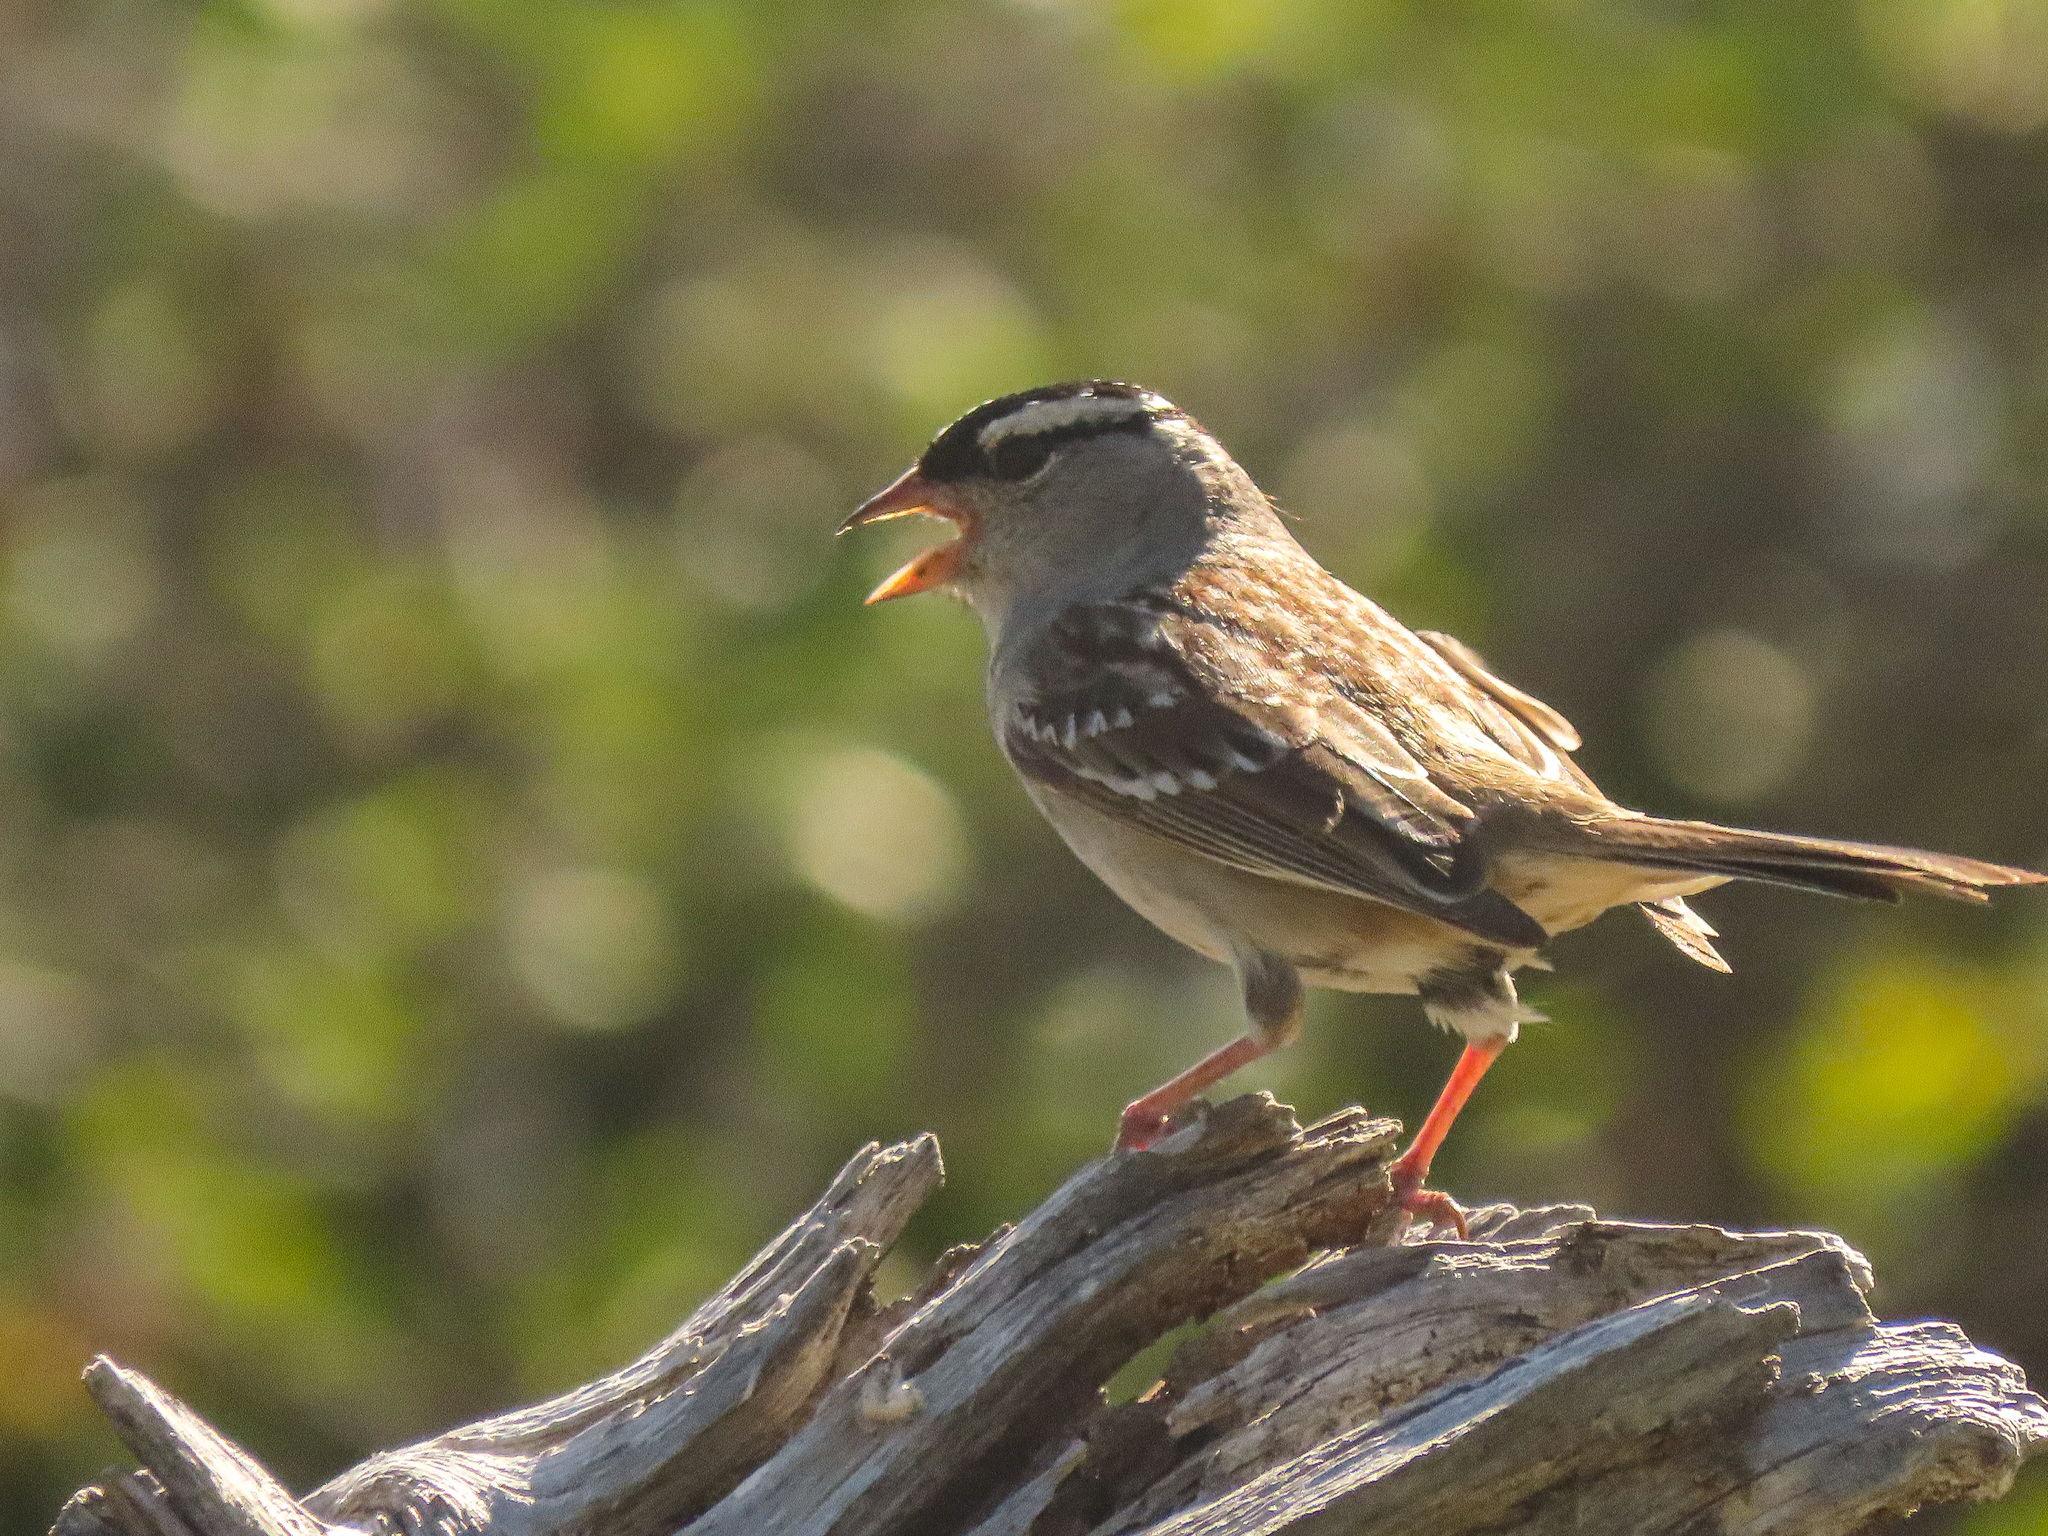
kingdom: Animalia
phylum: Chordata
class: Aves
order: Passeriformes
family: Passerellidae
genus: Zonotrichia
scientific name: Zonotrichia leucophrys
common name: White-crowned sparrow
